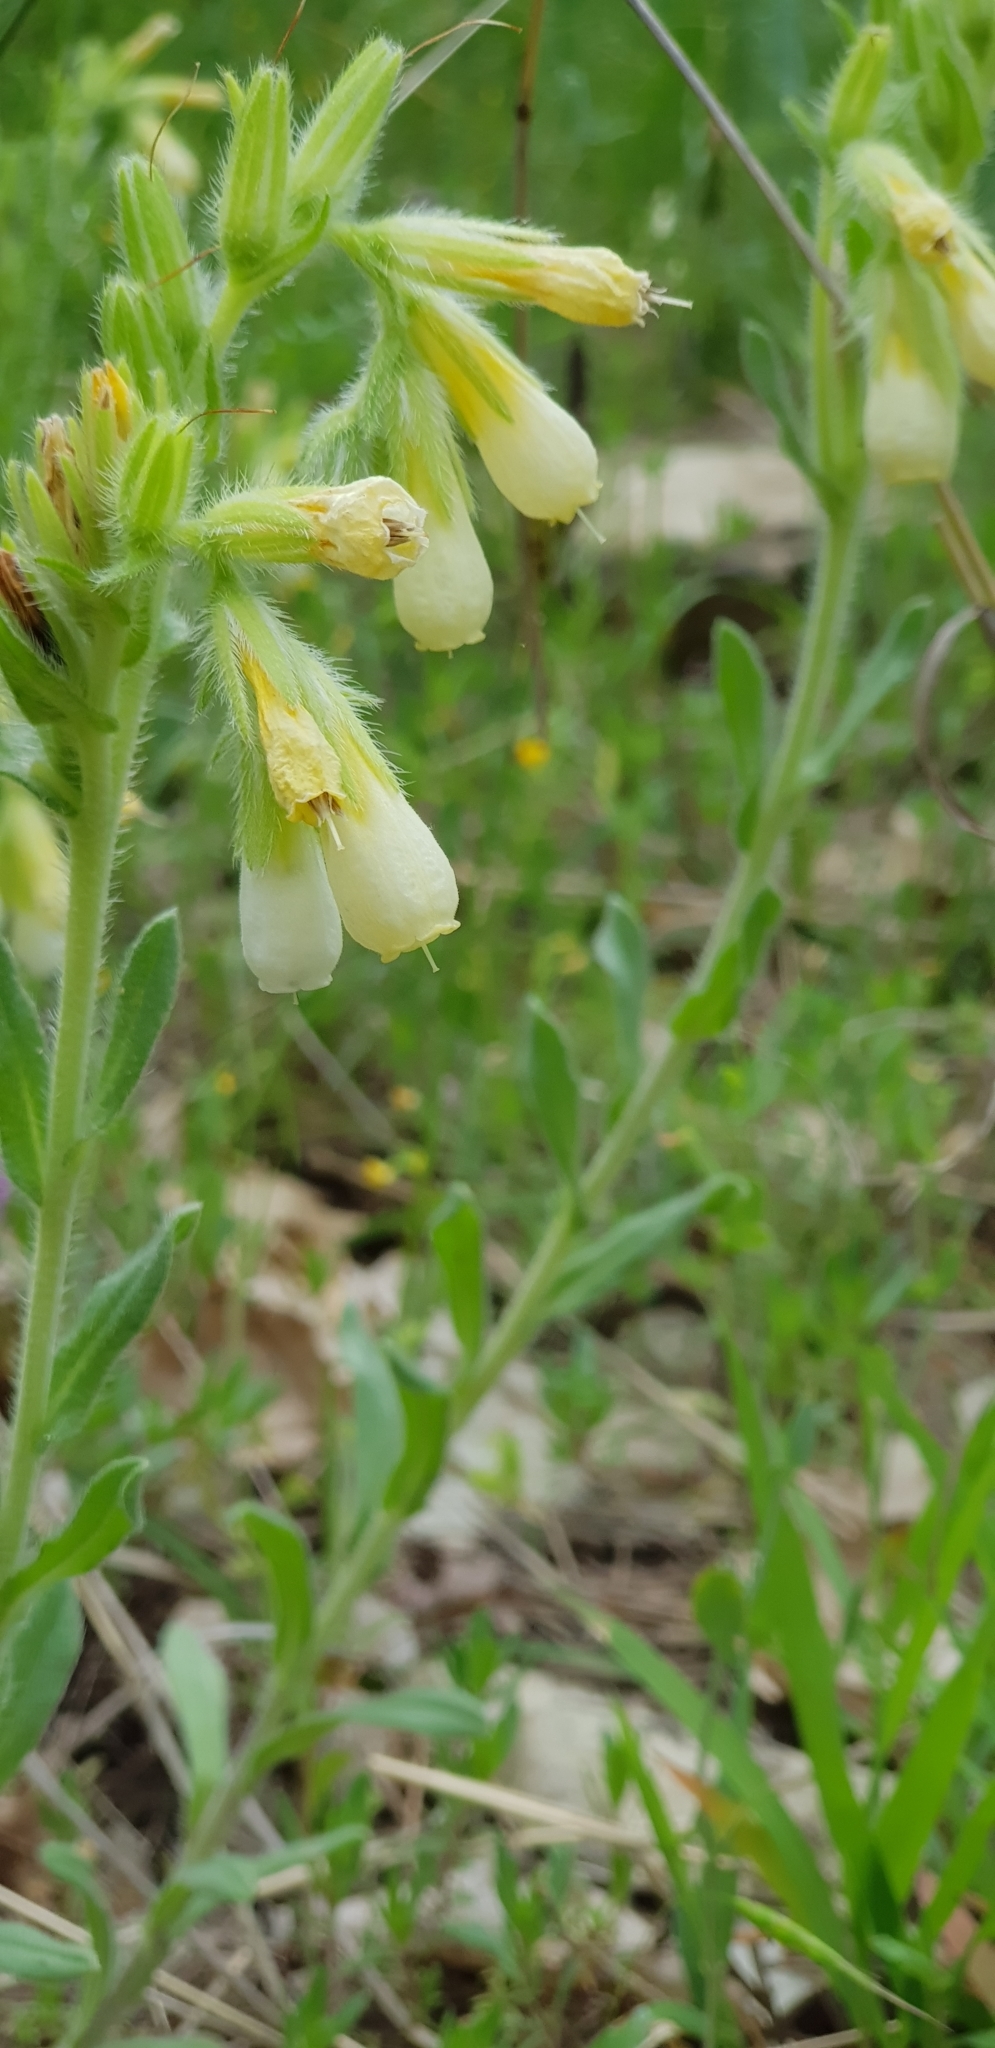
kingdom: Plantae
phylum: Tracheophyta
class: Magnoliopsida
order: Boraginales
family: Boraginaceae
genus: Onosma
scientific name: Onosma
